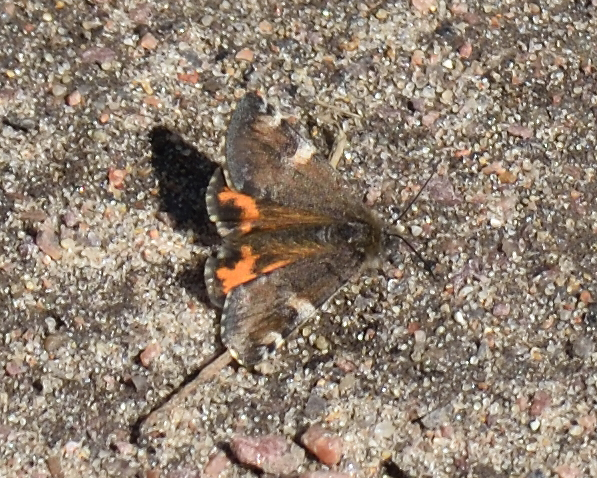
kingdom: Animalia
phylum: Arthropoda
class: Insecta
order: Lepidoptera
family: Geometridae
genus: Archiearis
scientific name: Archiearis parthenias
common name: Orange underwing
